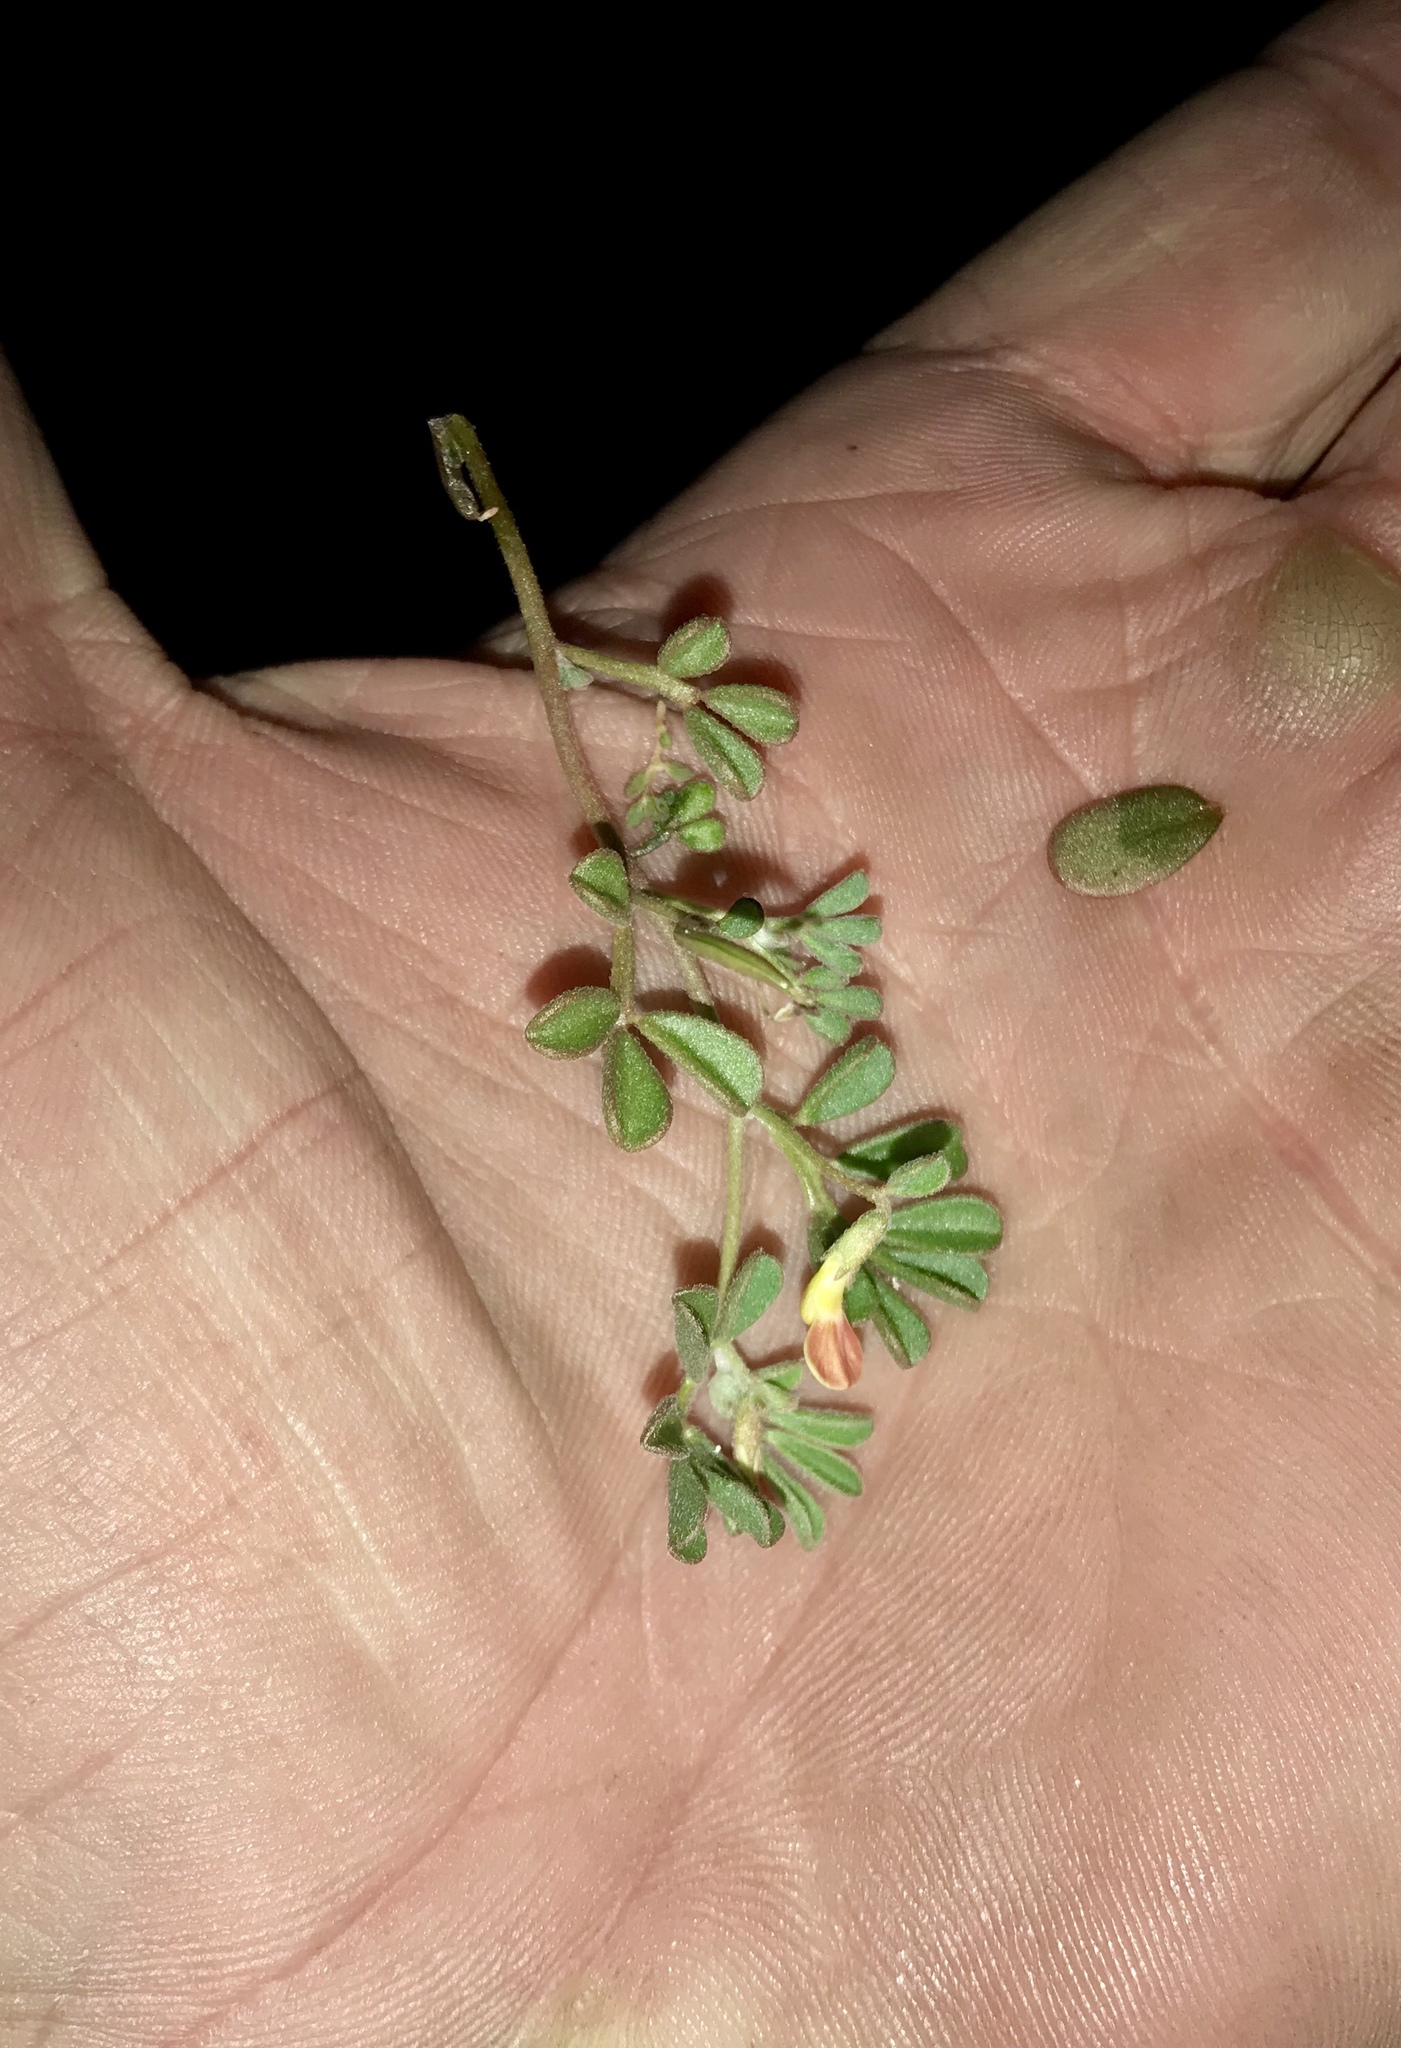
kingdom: Plantae
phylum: Tracheophyta
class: Magnoliopsida
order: Fabales
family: Fabaceae
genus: Acmispon
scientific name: Acmispon strigosus
